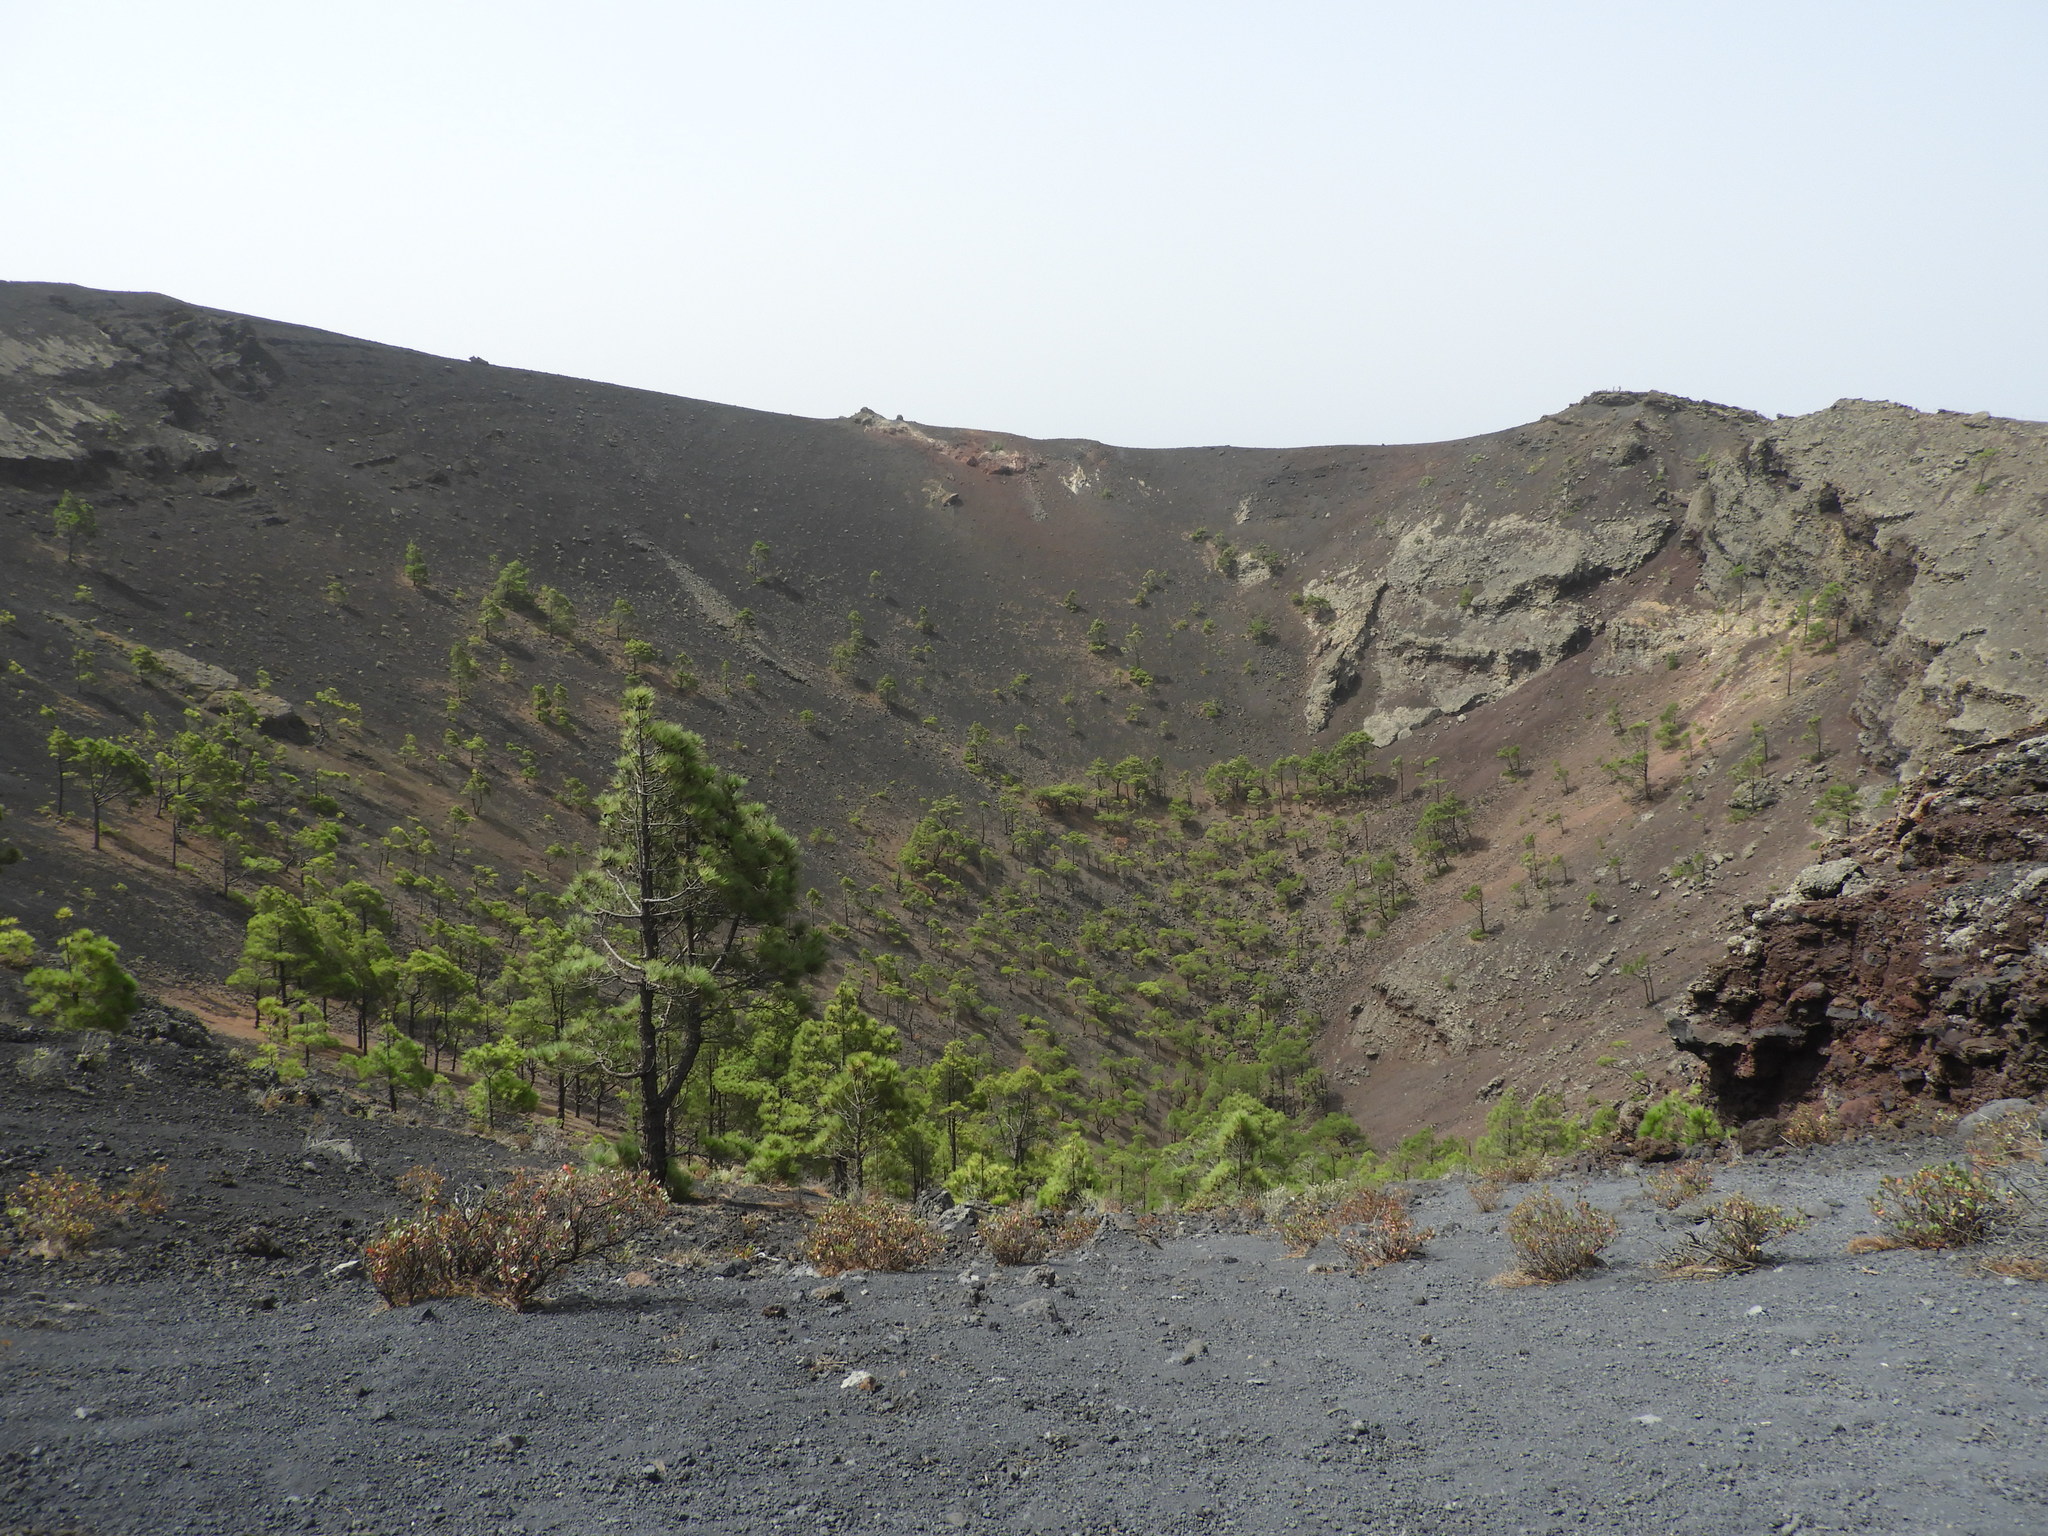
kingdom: Plantae
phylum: Tracheophyta
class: Pinopsida
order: Pinales
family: Pinaceae
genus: Pinus
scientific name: Pinus canariensis
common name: Canary islands pine
